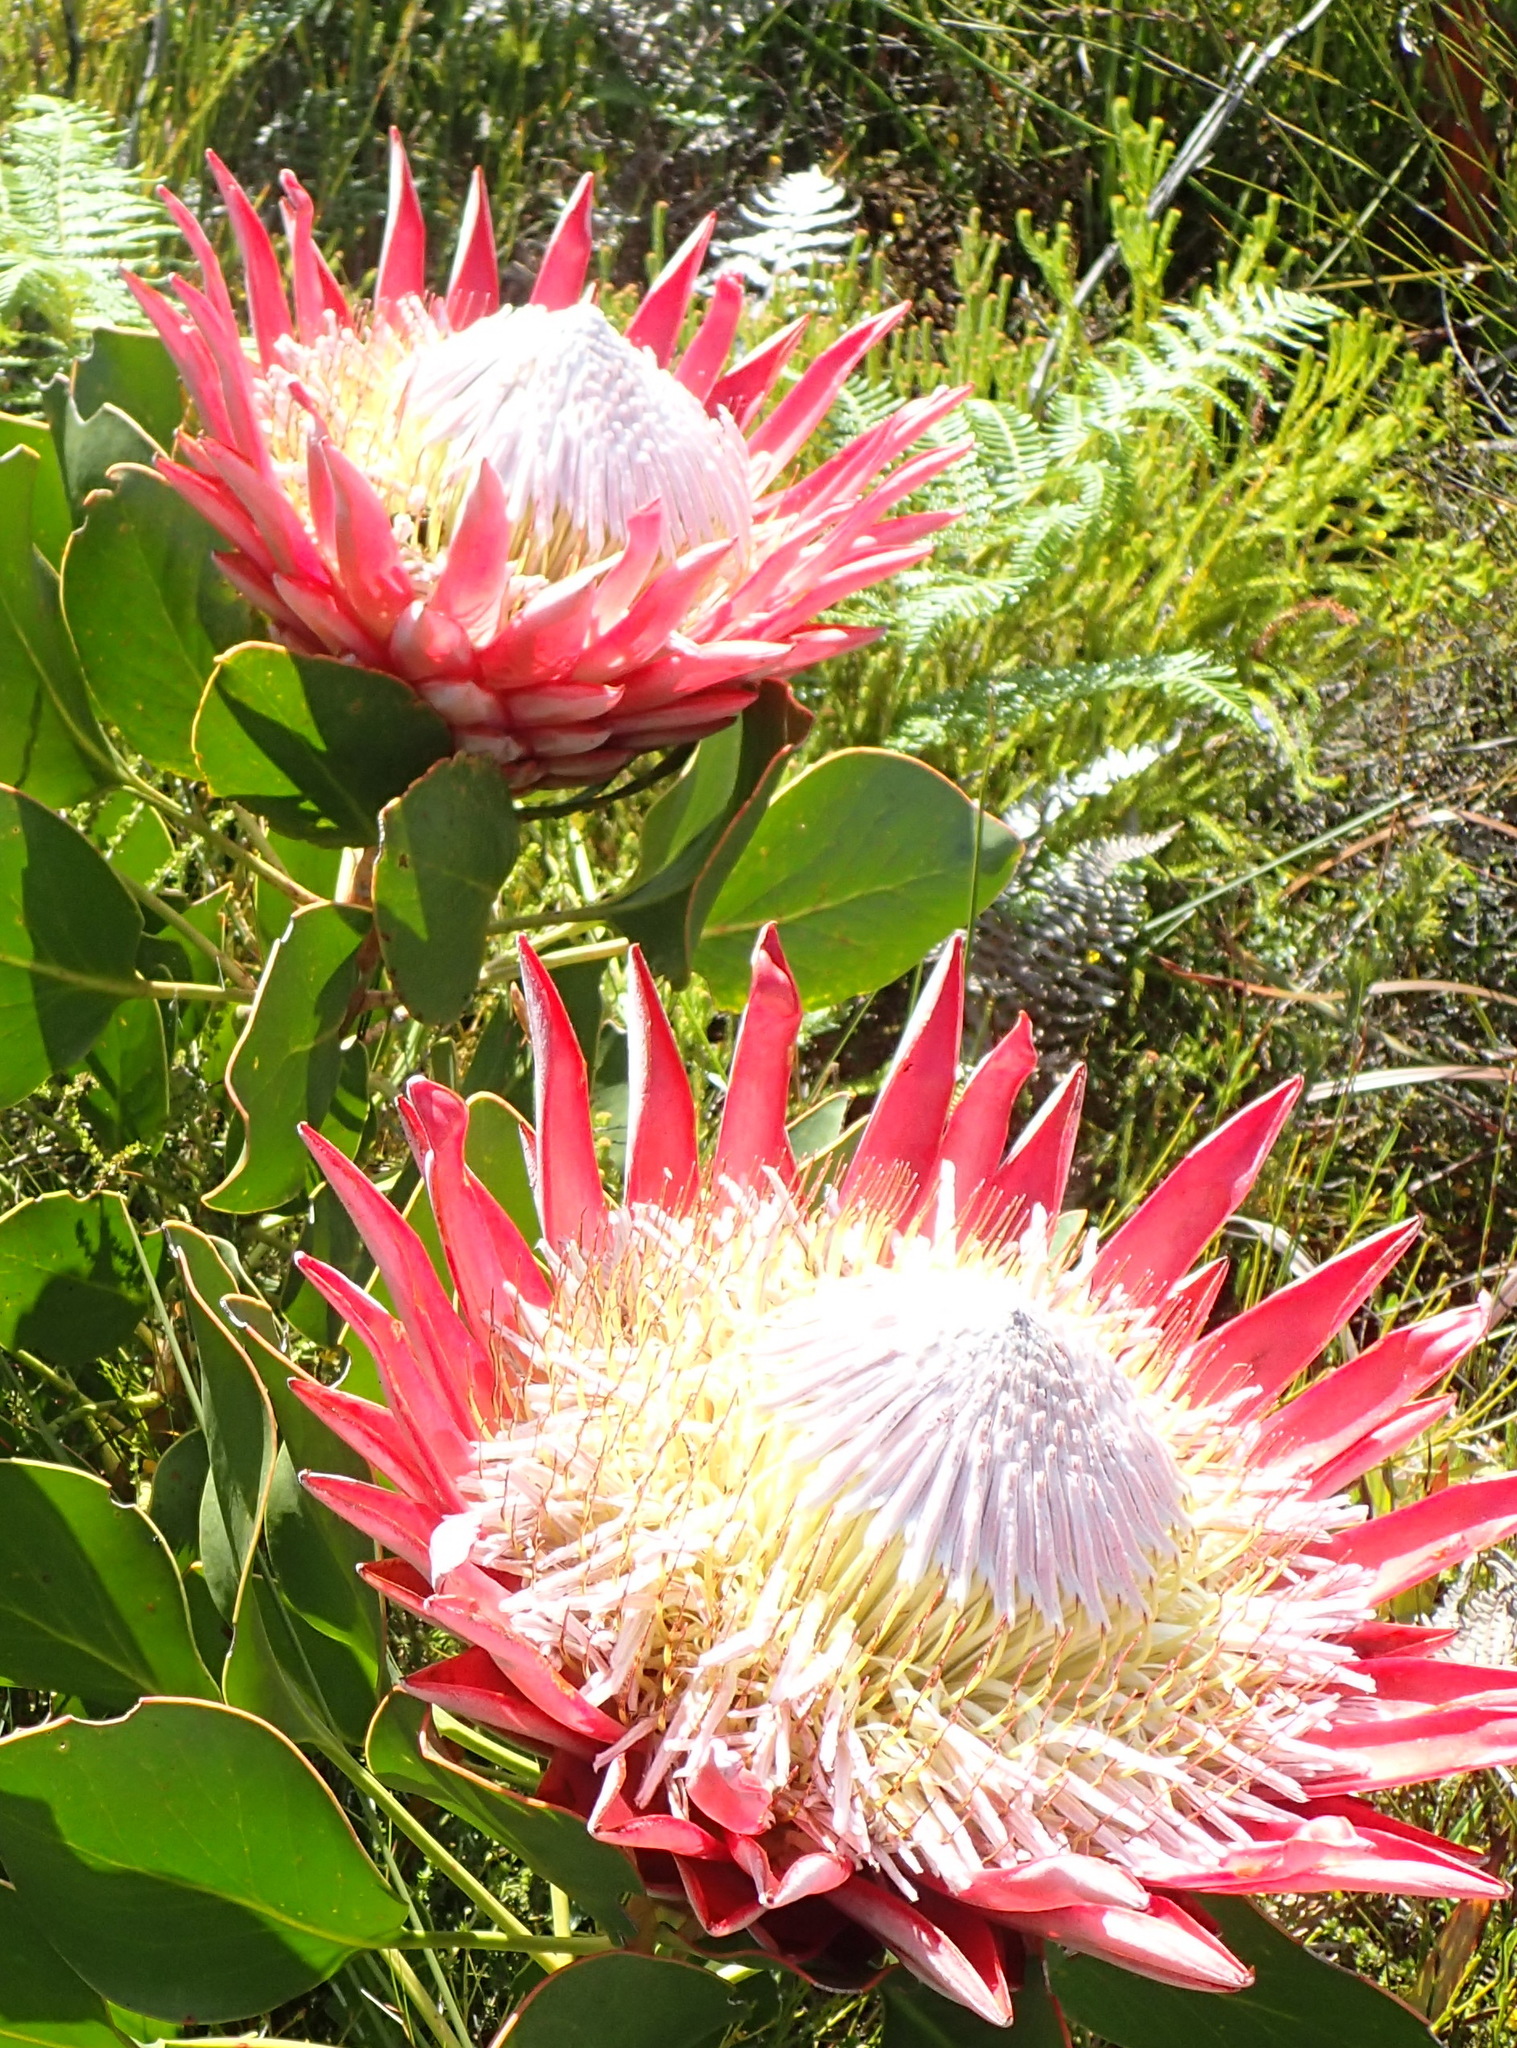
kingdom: Plantae
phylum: Tracheophyta
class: Magnoliopsida
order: Proteales
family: Proteaceae
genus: Protea
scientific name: Protea cynaroides
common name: King protea
